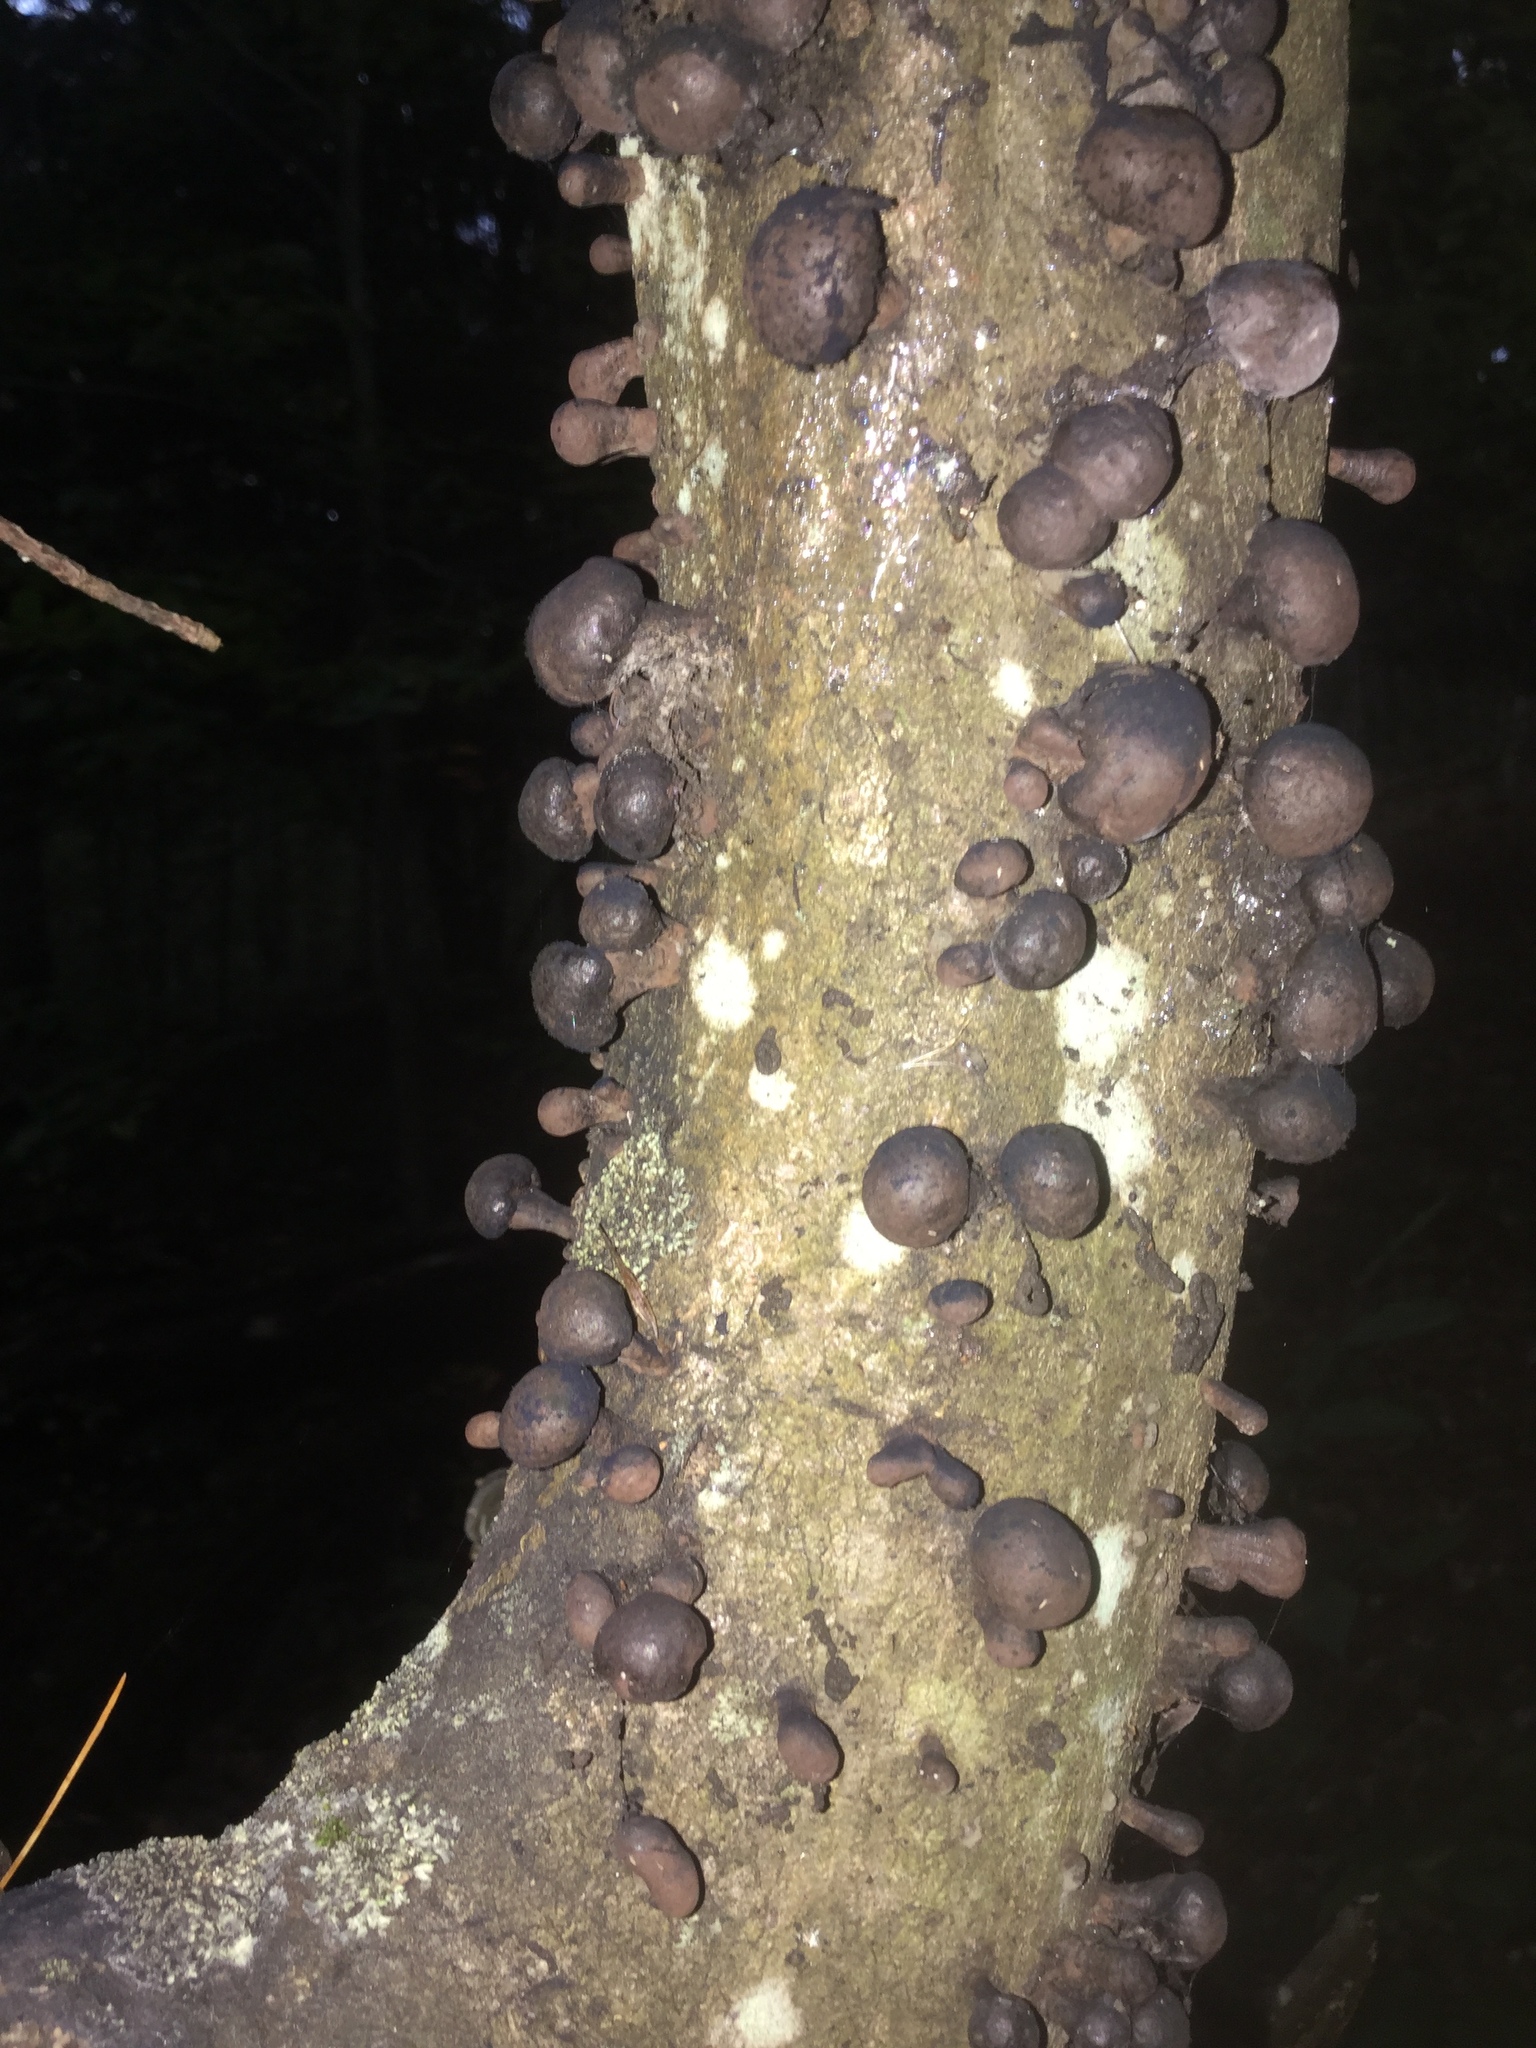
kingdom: Fungi
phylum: Ascomycota
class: Sordariomycetes
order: Xylariales
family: Hypoxylaceae
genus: Daldinia
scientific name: Daldinia vernicosa
